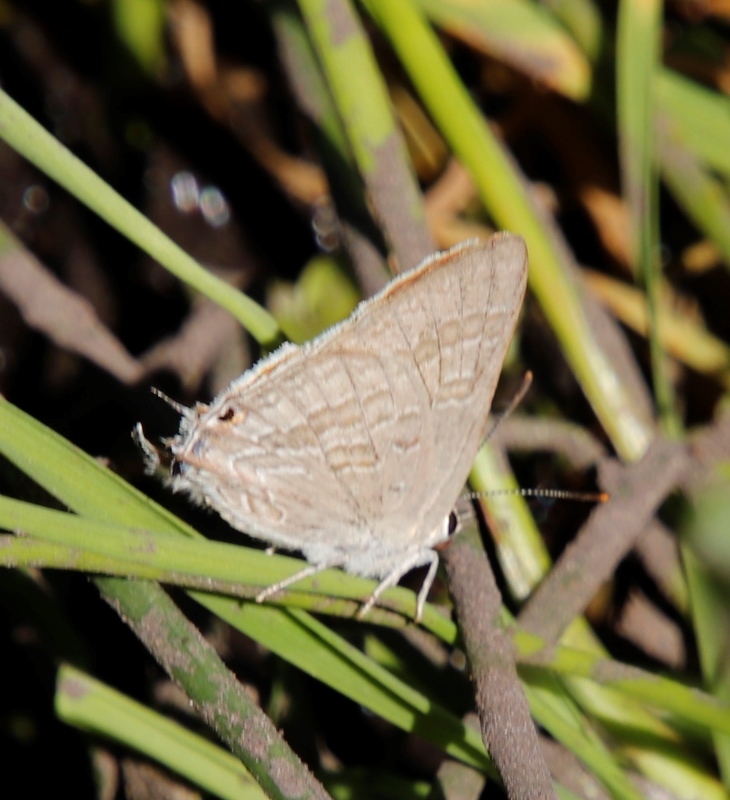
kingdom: Animalia
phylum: Arthropoda
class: Insecta
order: Lepidoptera
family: Lycaenidae
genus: Deudorix
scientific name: Deudorix antalus
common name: Brown playboy
